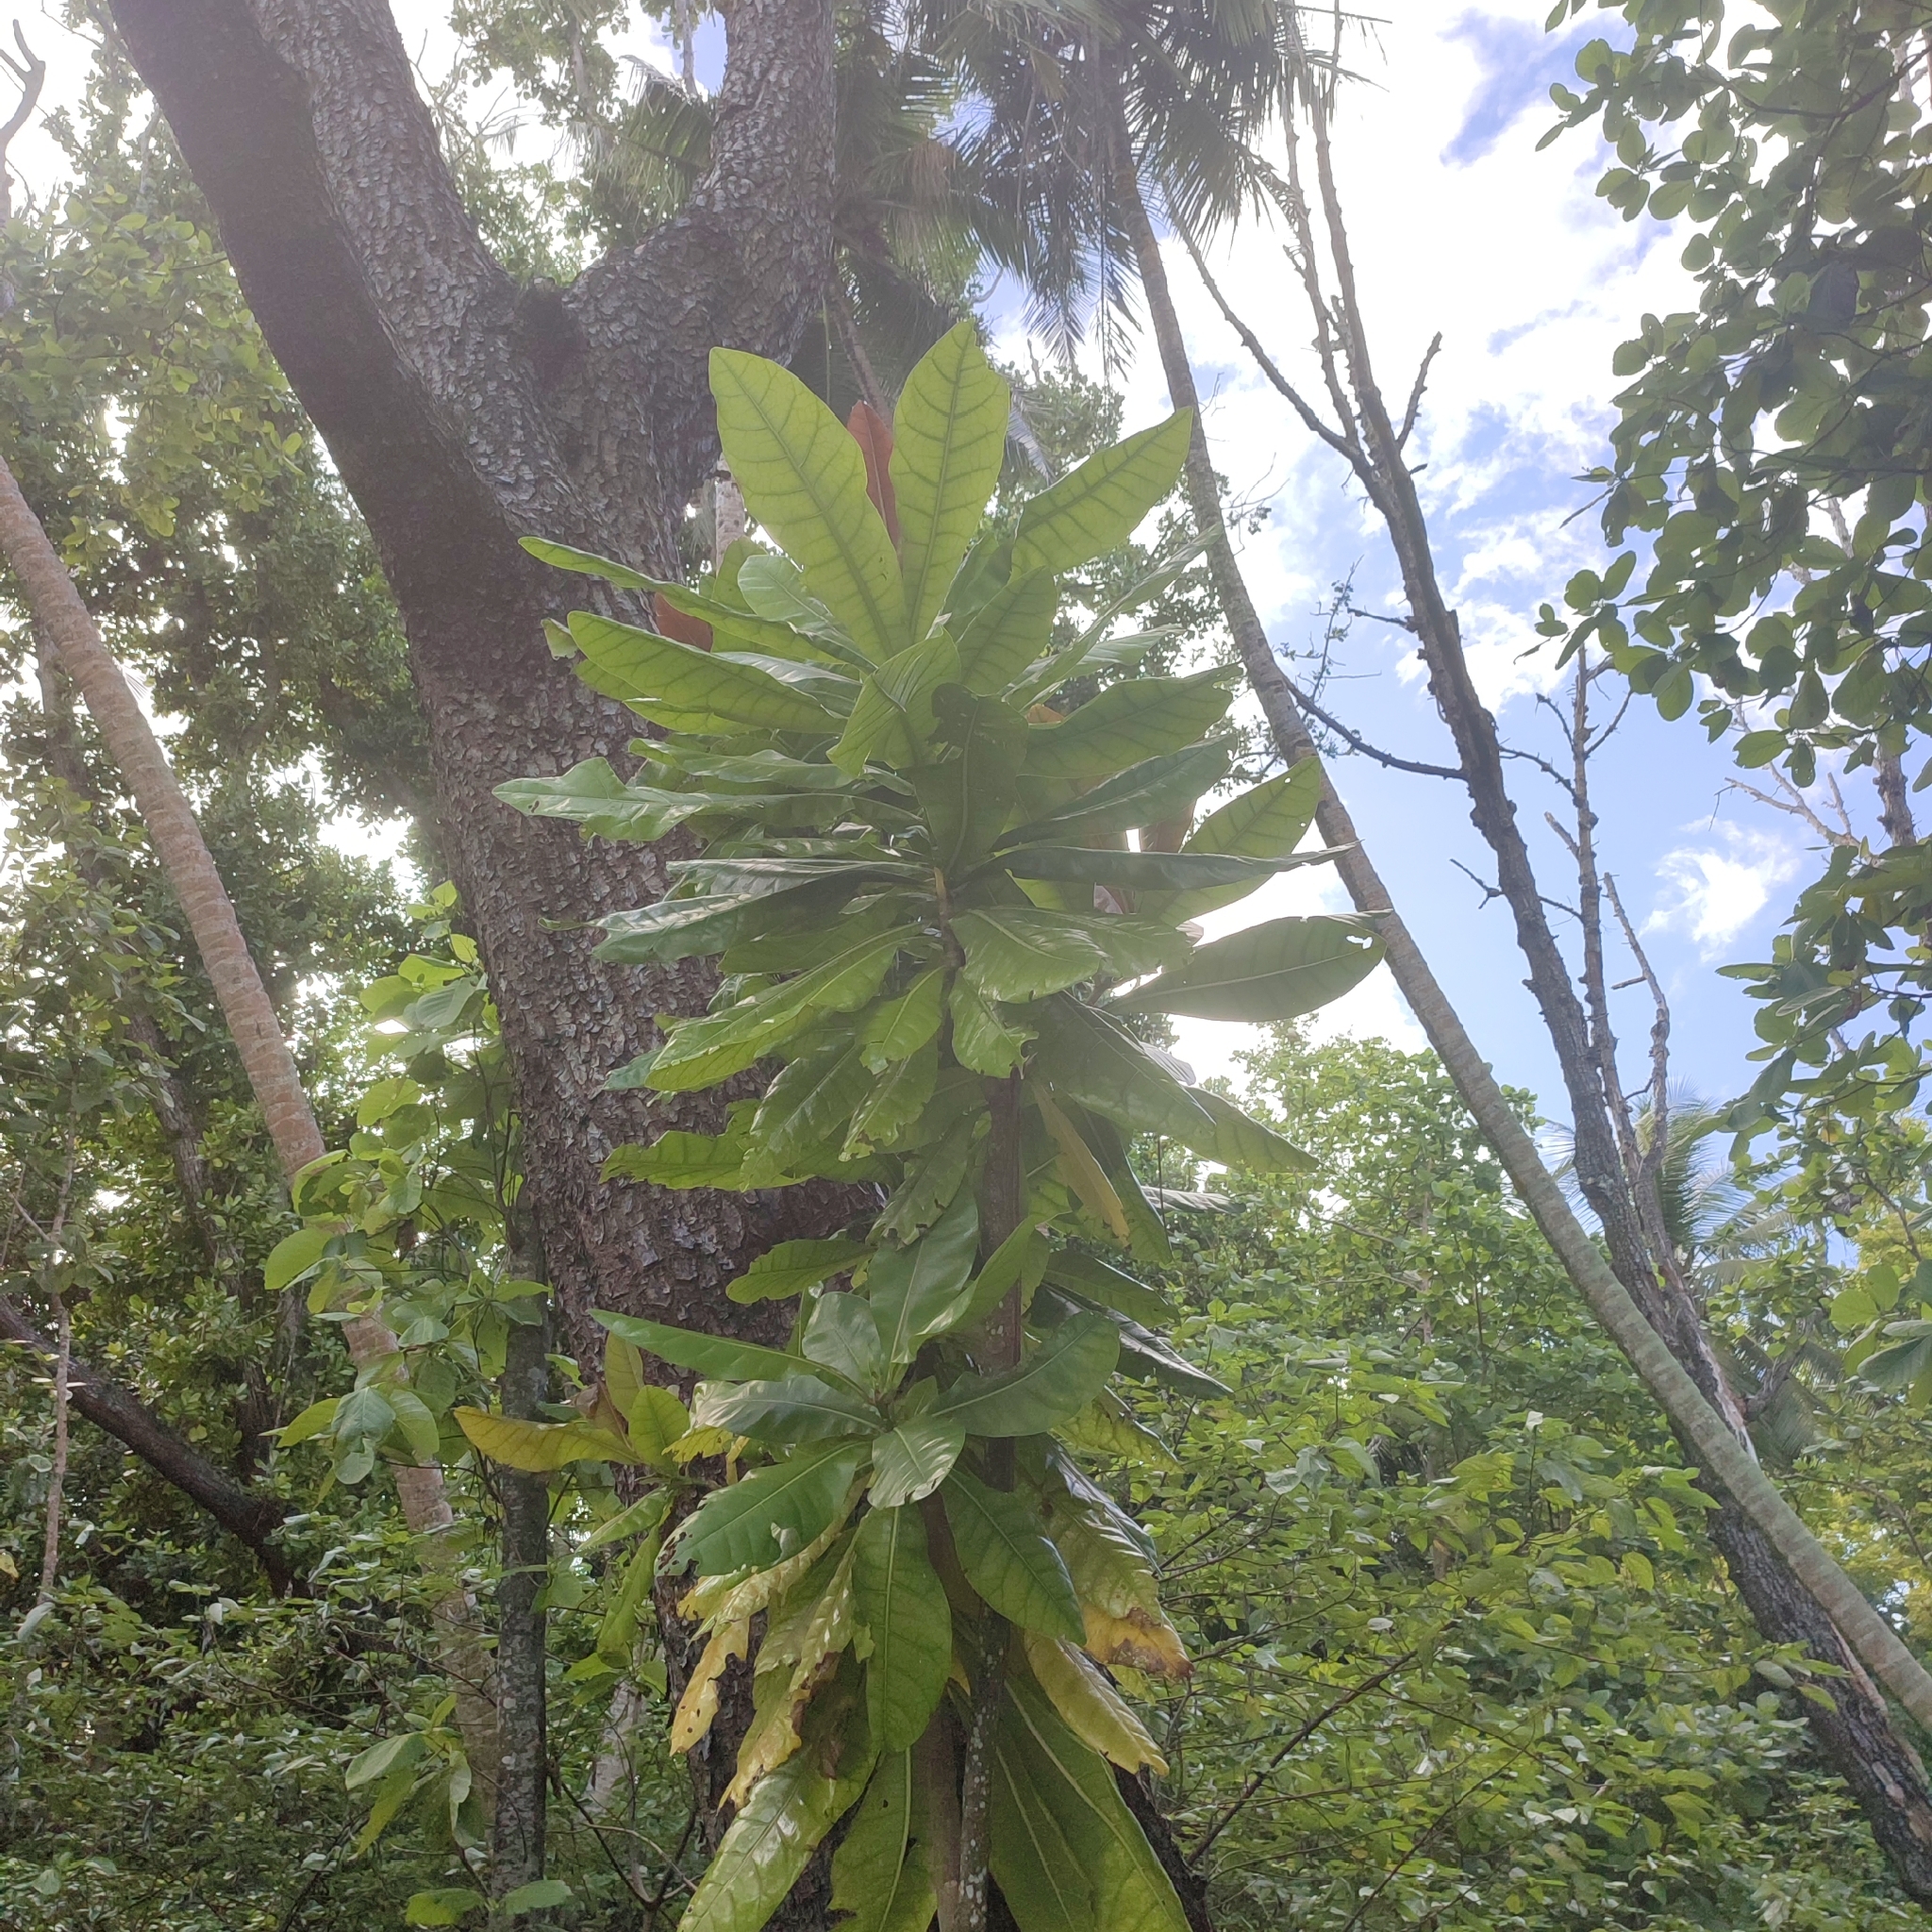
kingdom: Plantae
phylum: Tracheophyta
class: Magnoliopsida
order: Ericales
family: Lecythidaceae
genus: Barringtonia
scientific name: Barringtonia asiatica
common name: Mango-pine
